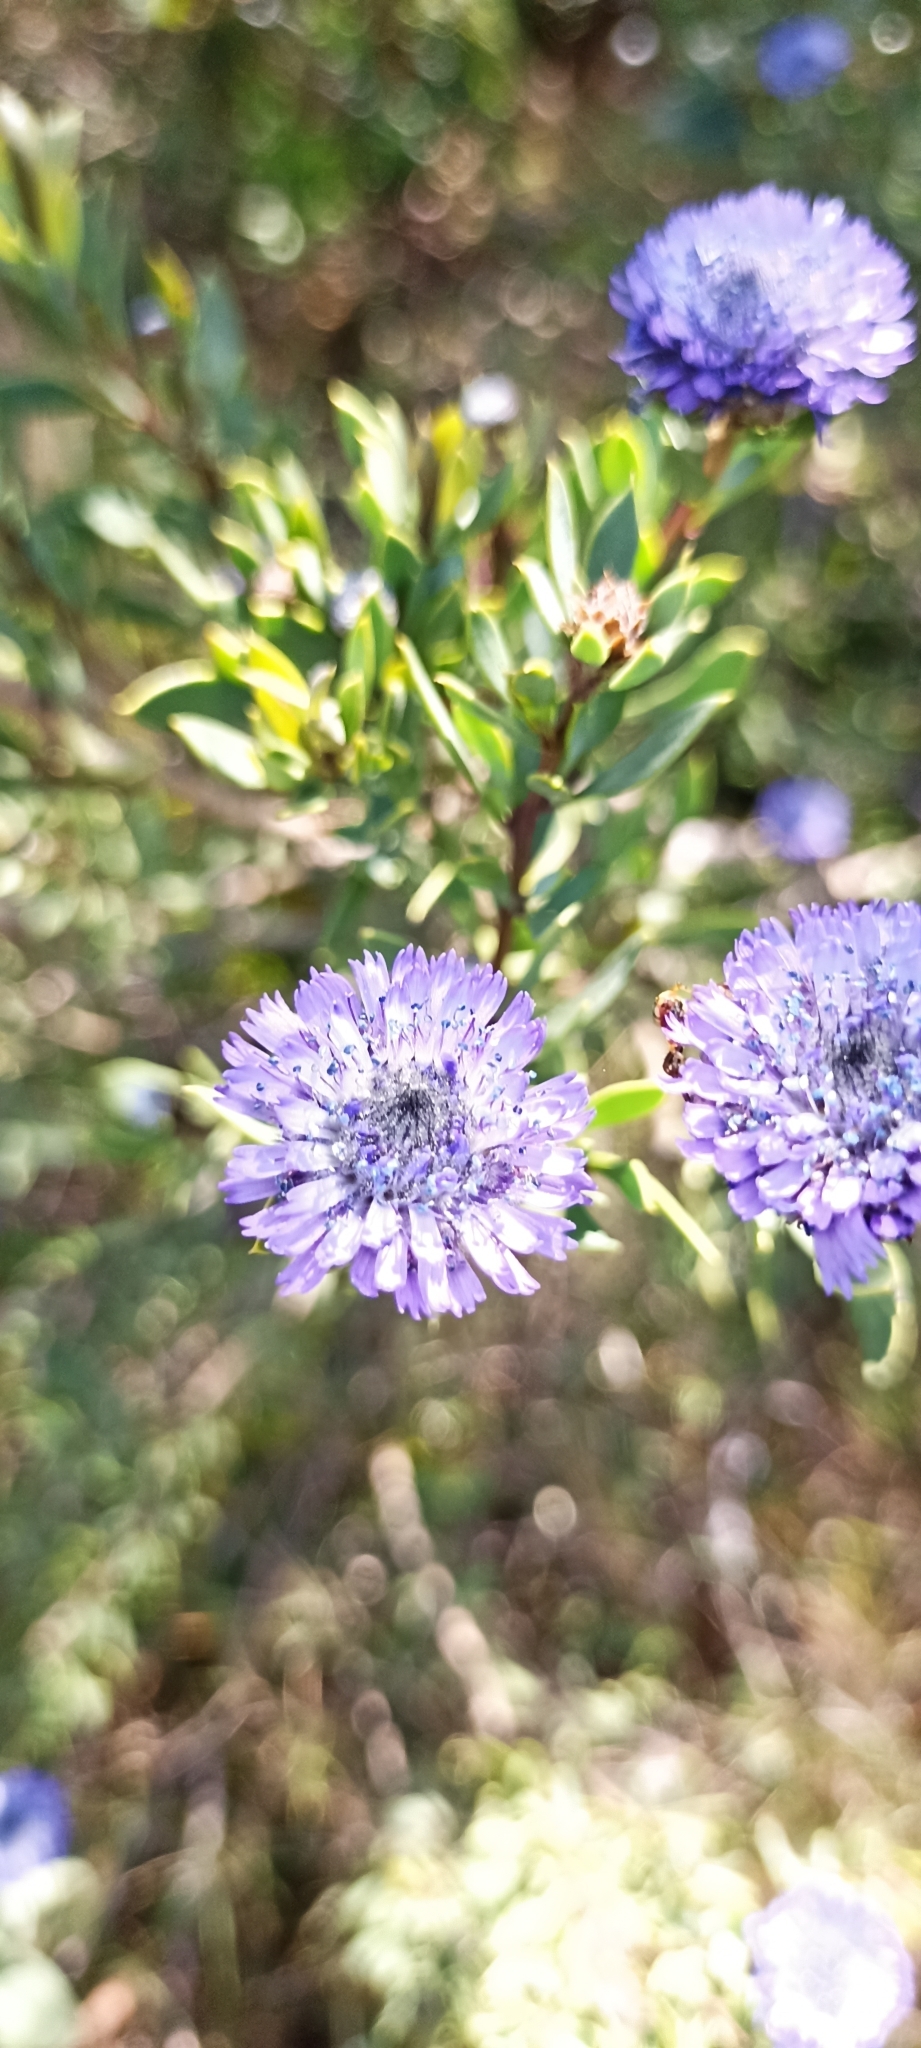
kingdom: Plantae
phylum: Tracheophyta
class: Magnoliopsida
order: Lamiales
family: Plantaginaceae
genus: Globularia
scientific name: Globularia alypum
